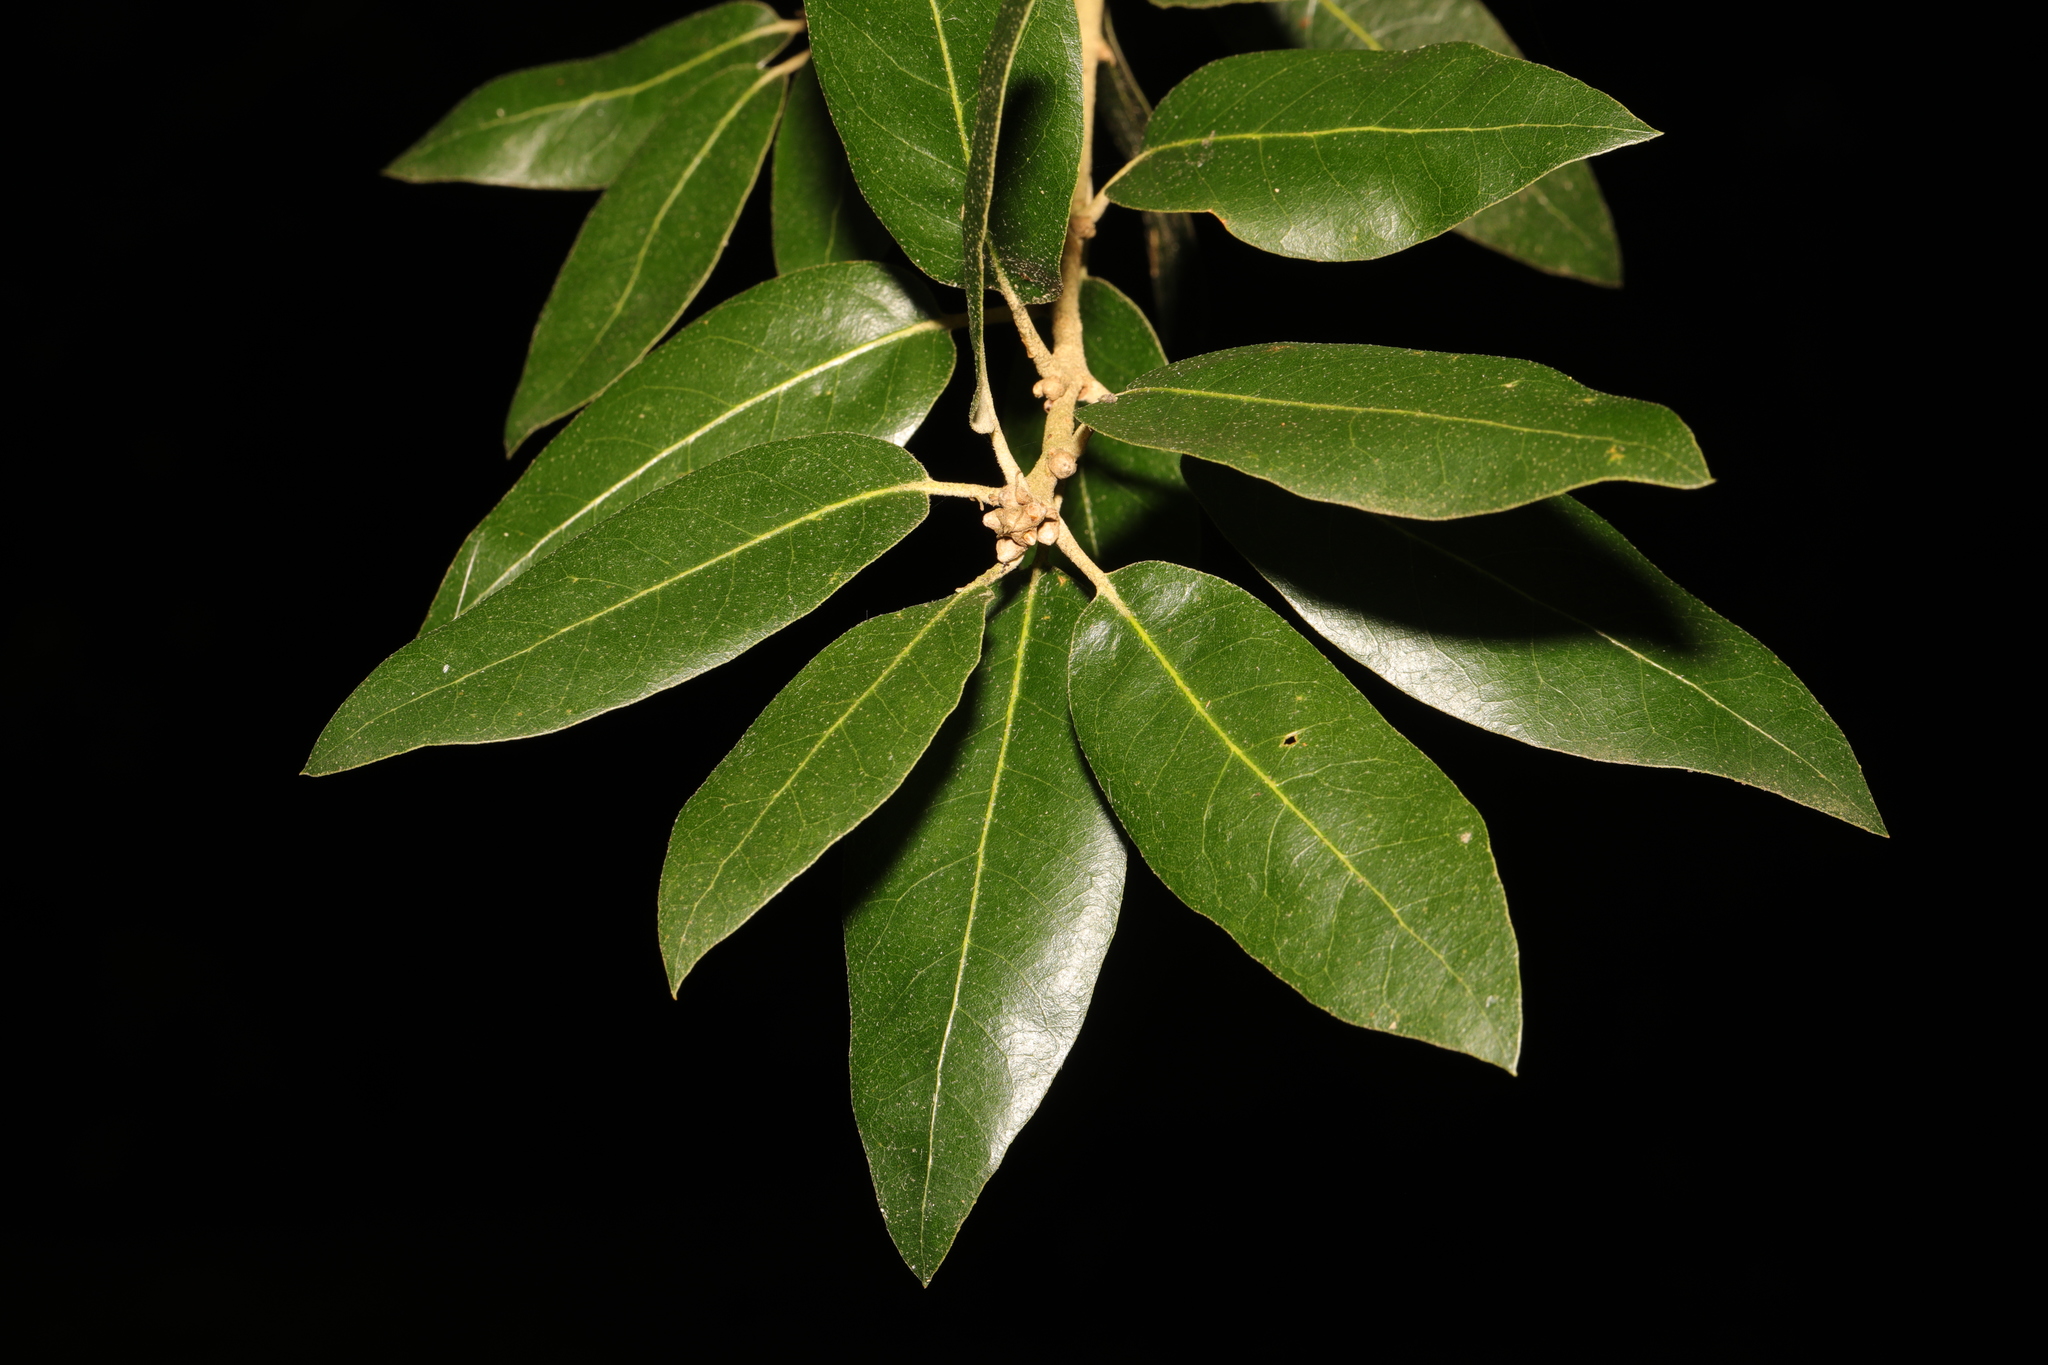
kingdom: Plantae
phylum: Tracheophyta
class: Magnoliopsida
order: Fagales
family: Fagaceae
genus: Quercus
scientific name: Quercus ilex
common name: Evergreen oak
